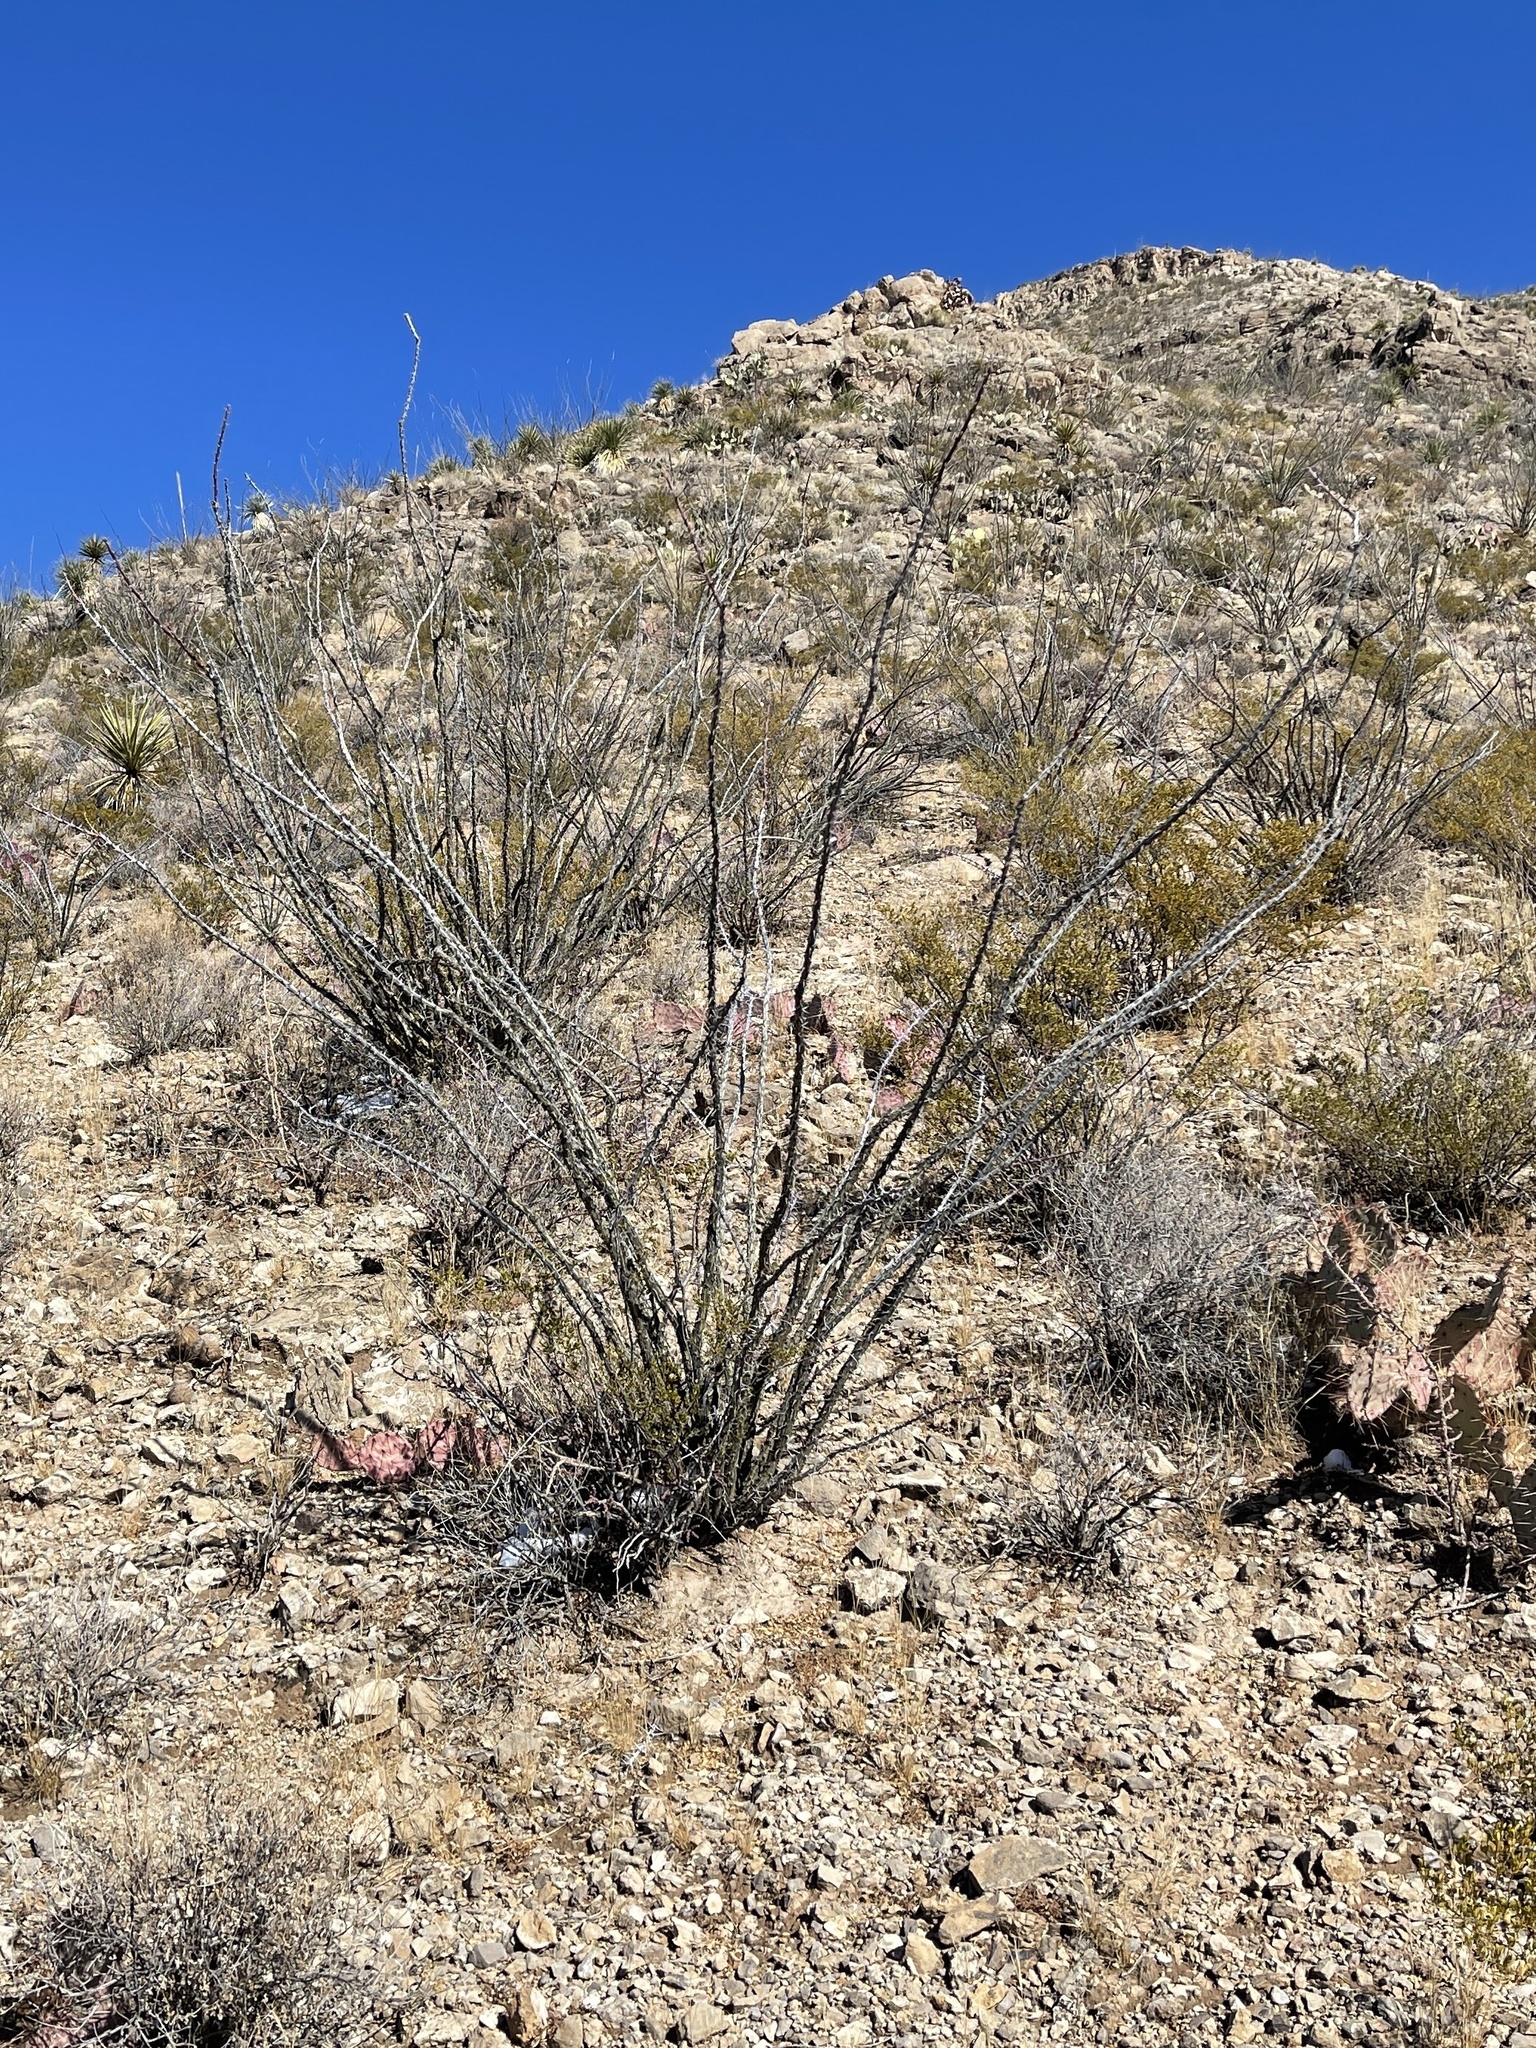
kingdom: Plantae
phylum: Tracheophyta
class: Magnoliopsida
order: Ericales
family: Fouquieriaceae
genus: Fouquieria
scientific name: Fouquieria splendens
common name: Vine-cactus
